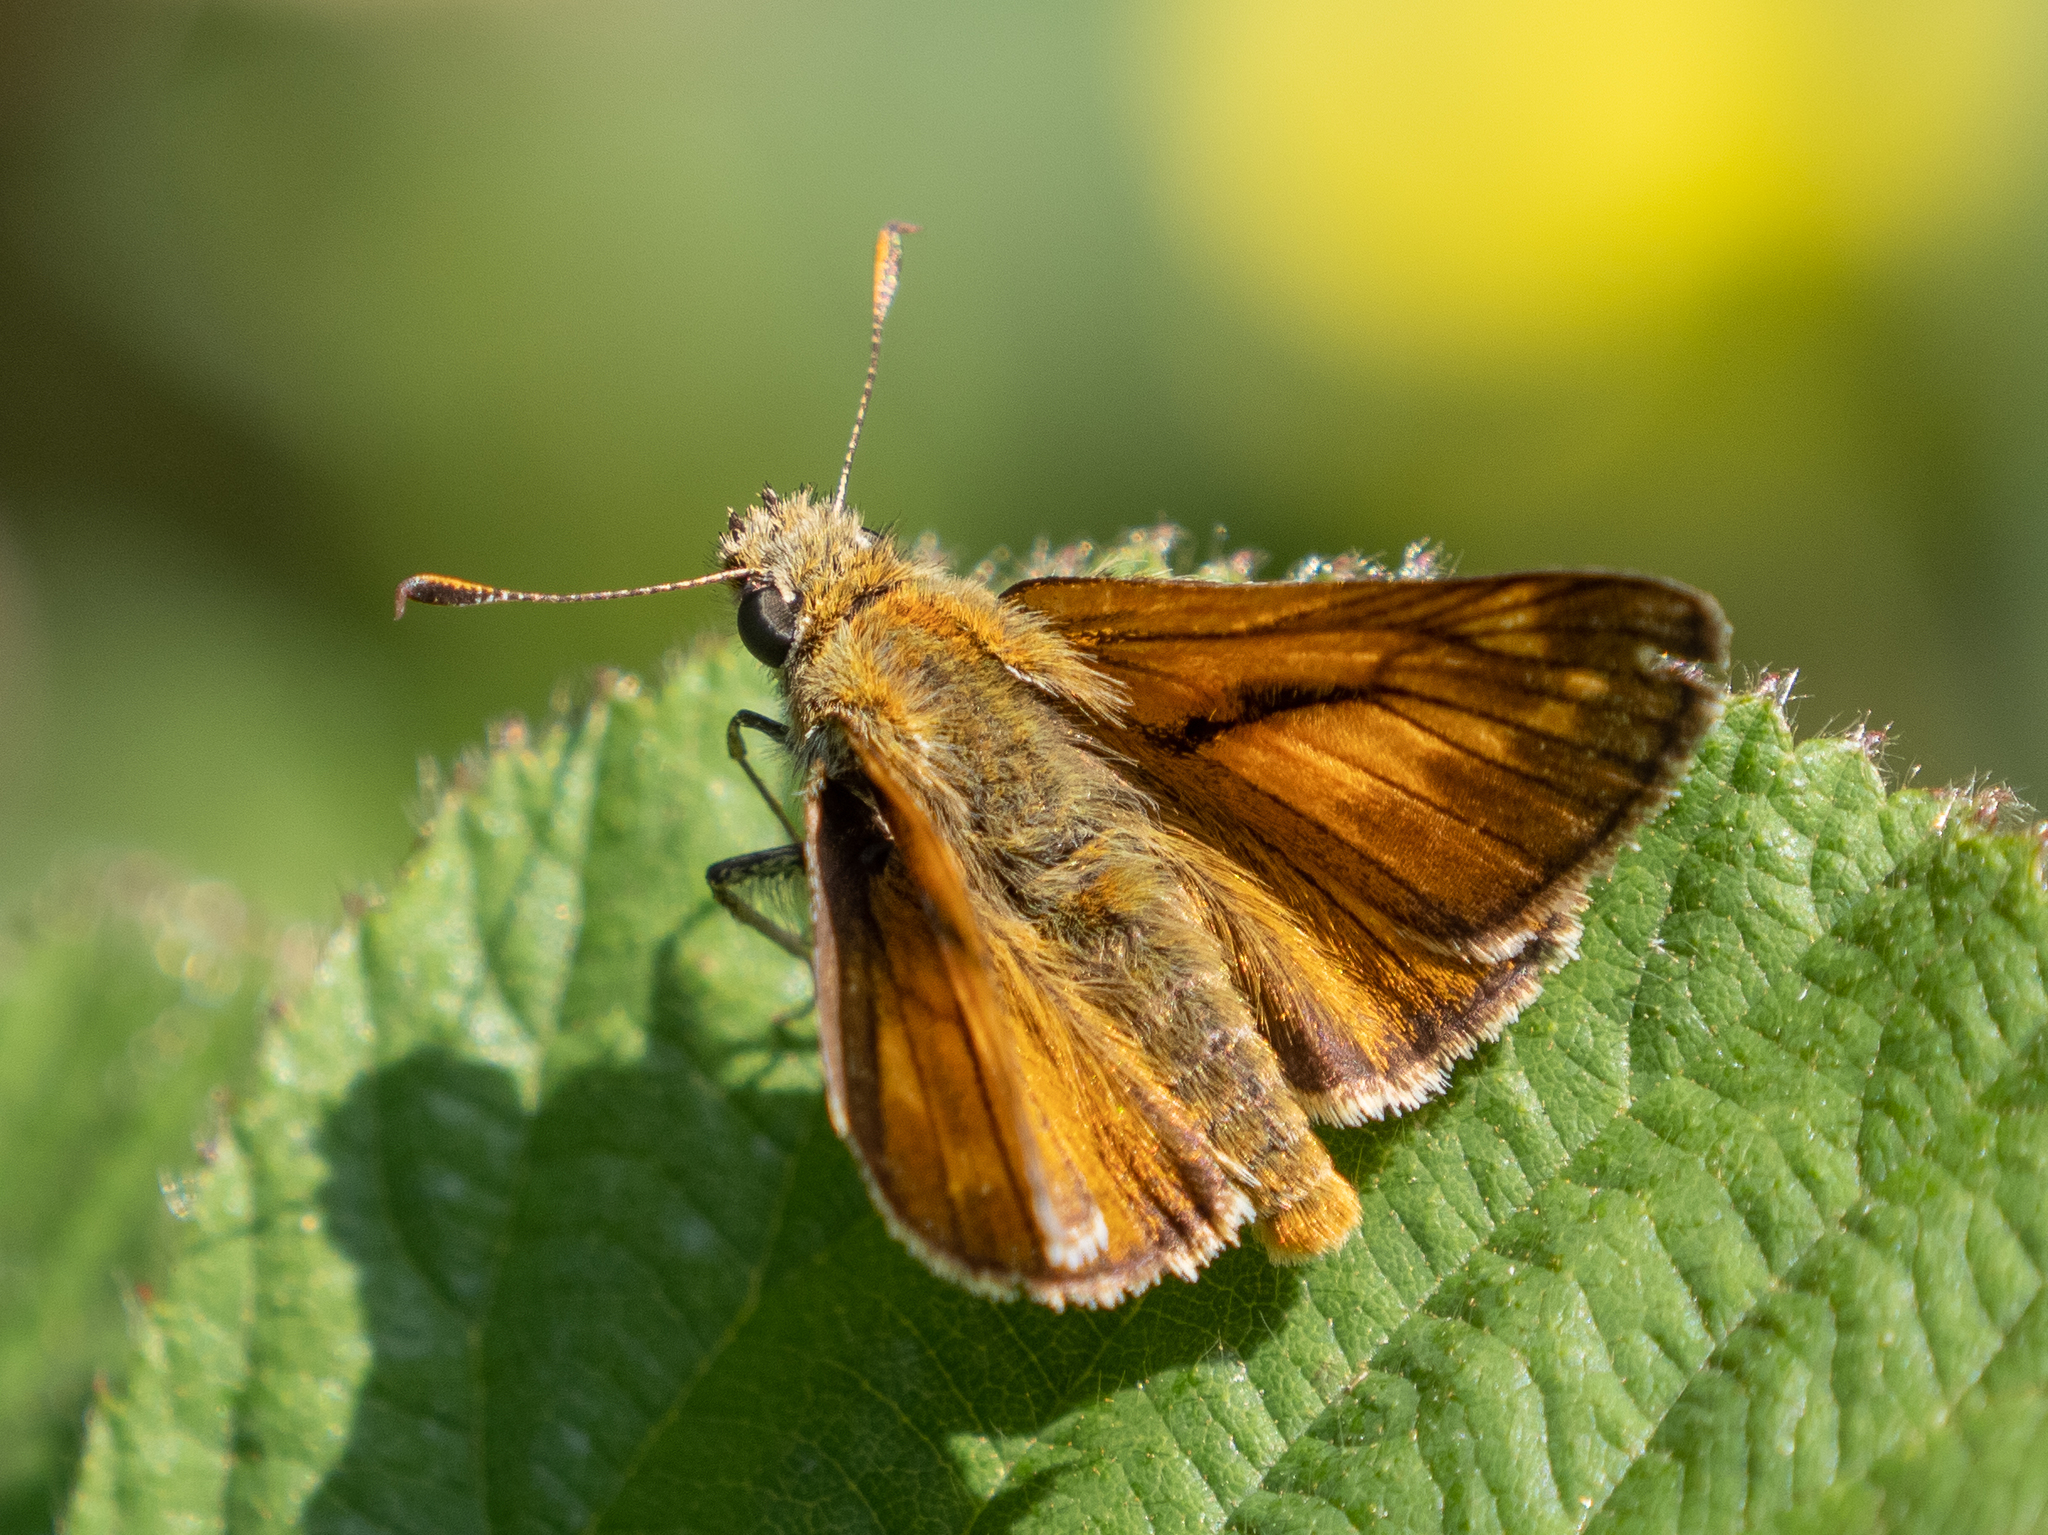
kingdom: Animalia
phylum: Arthropoda
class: Insecta
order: Lepidoptera
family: Hesperiidae
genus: Ochlodes
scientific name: Ochlodes venata
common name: Large skipper
